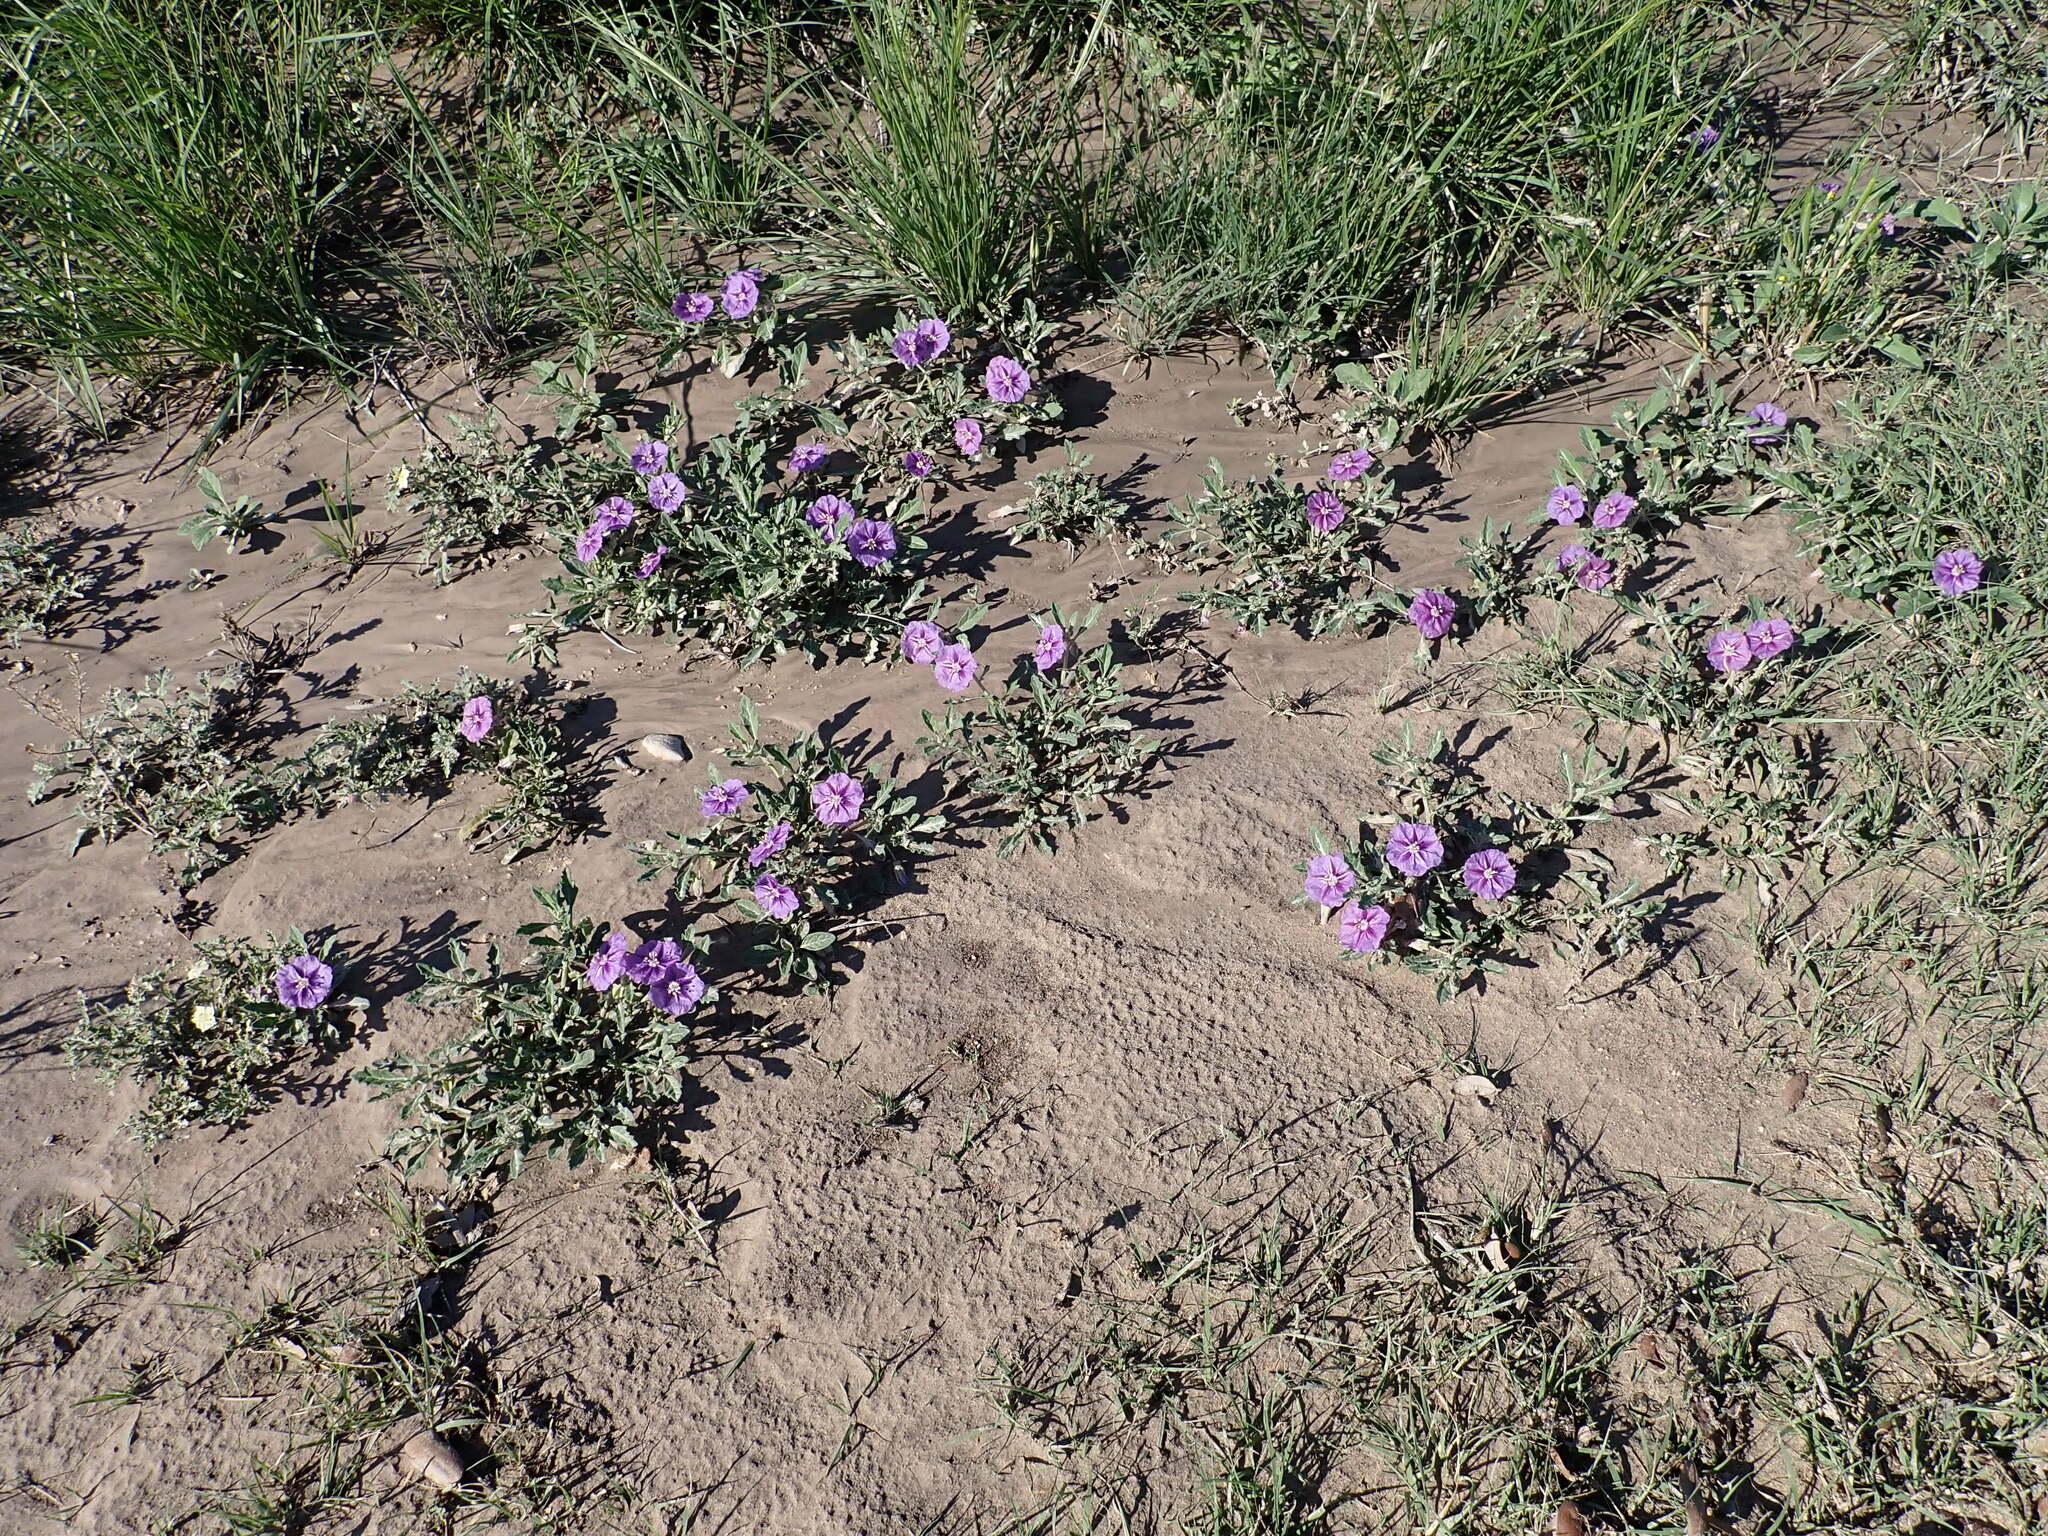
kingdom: Plantae
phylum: Tracheophyta
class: Magnoliopsida
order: Solanales
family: Solanaceae
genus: Quincula
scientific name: Quincula lobata
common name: Purple-ground-cherry
